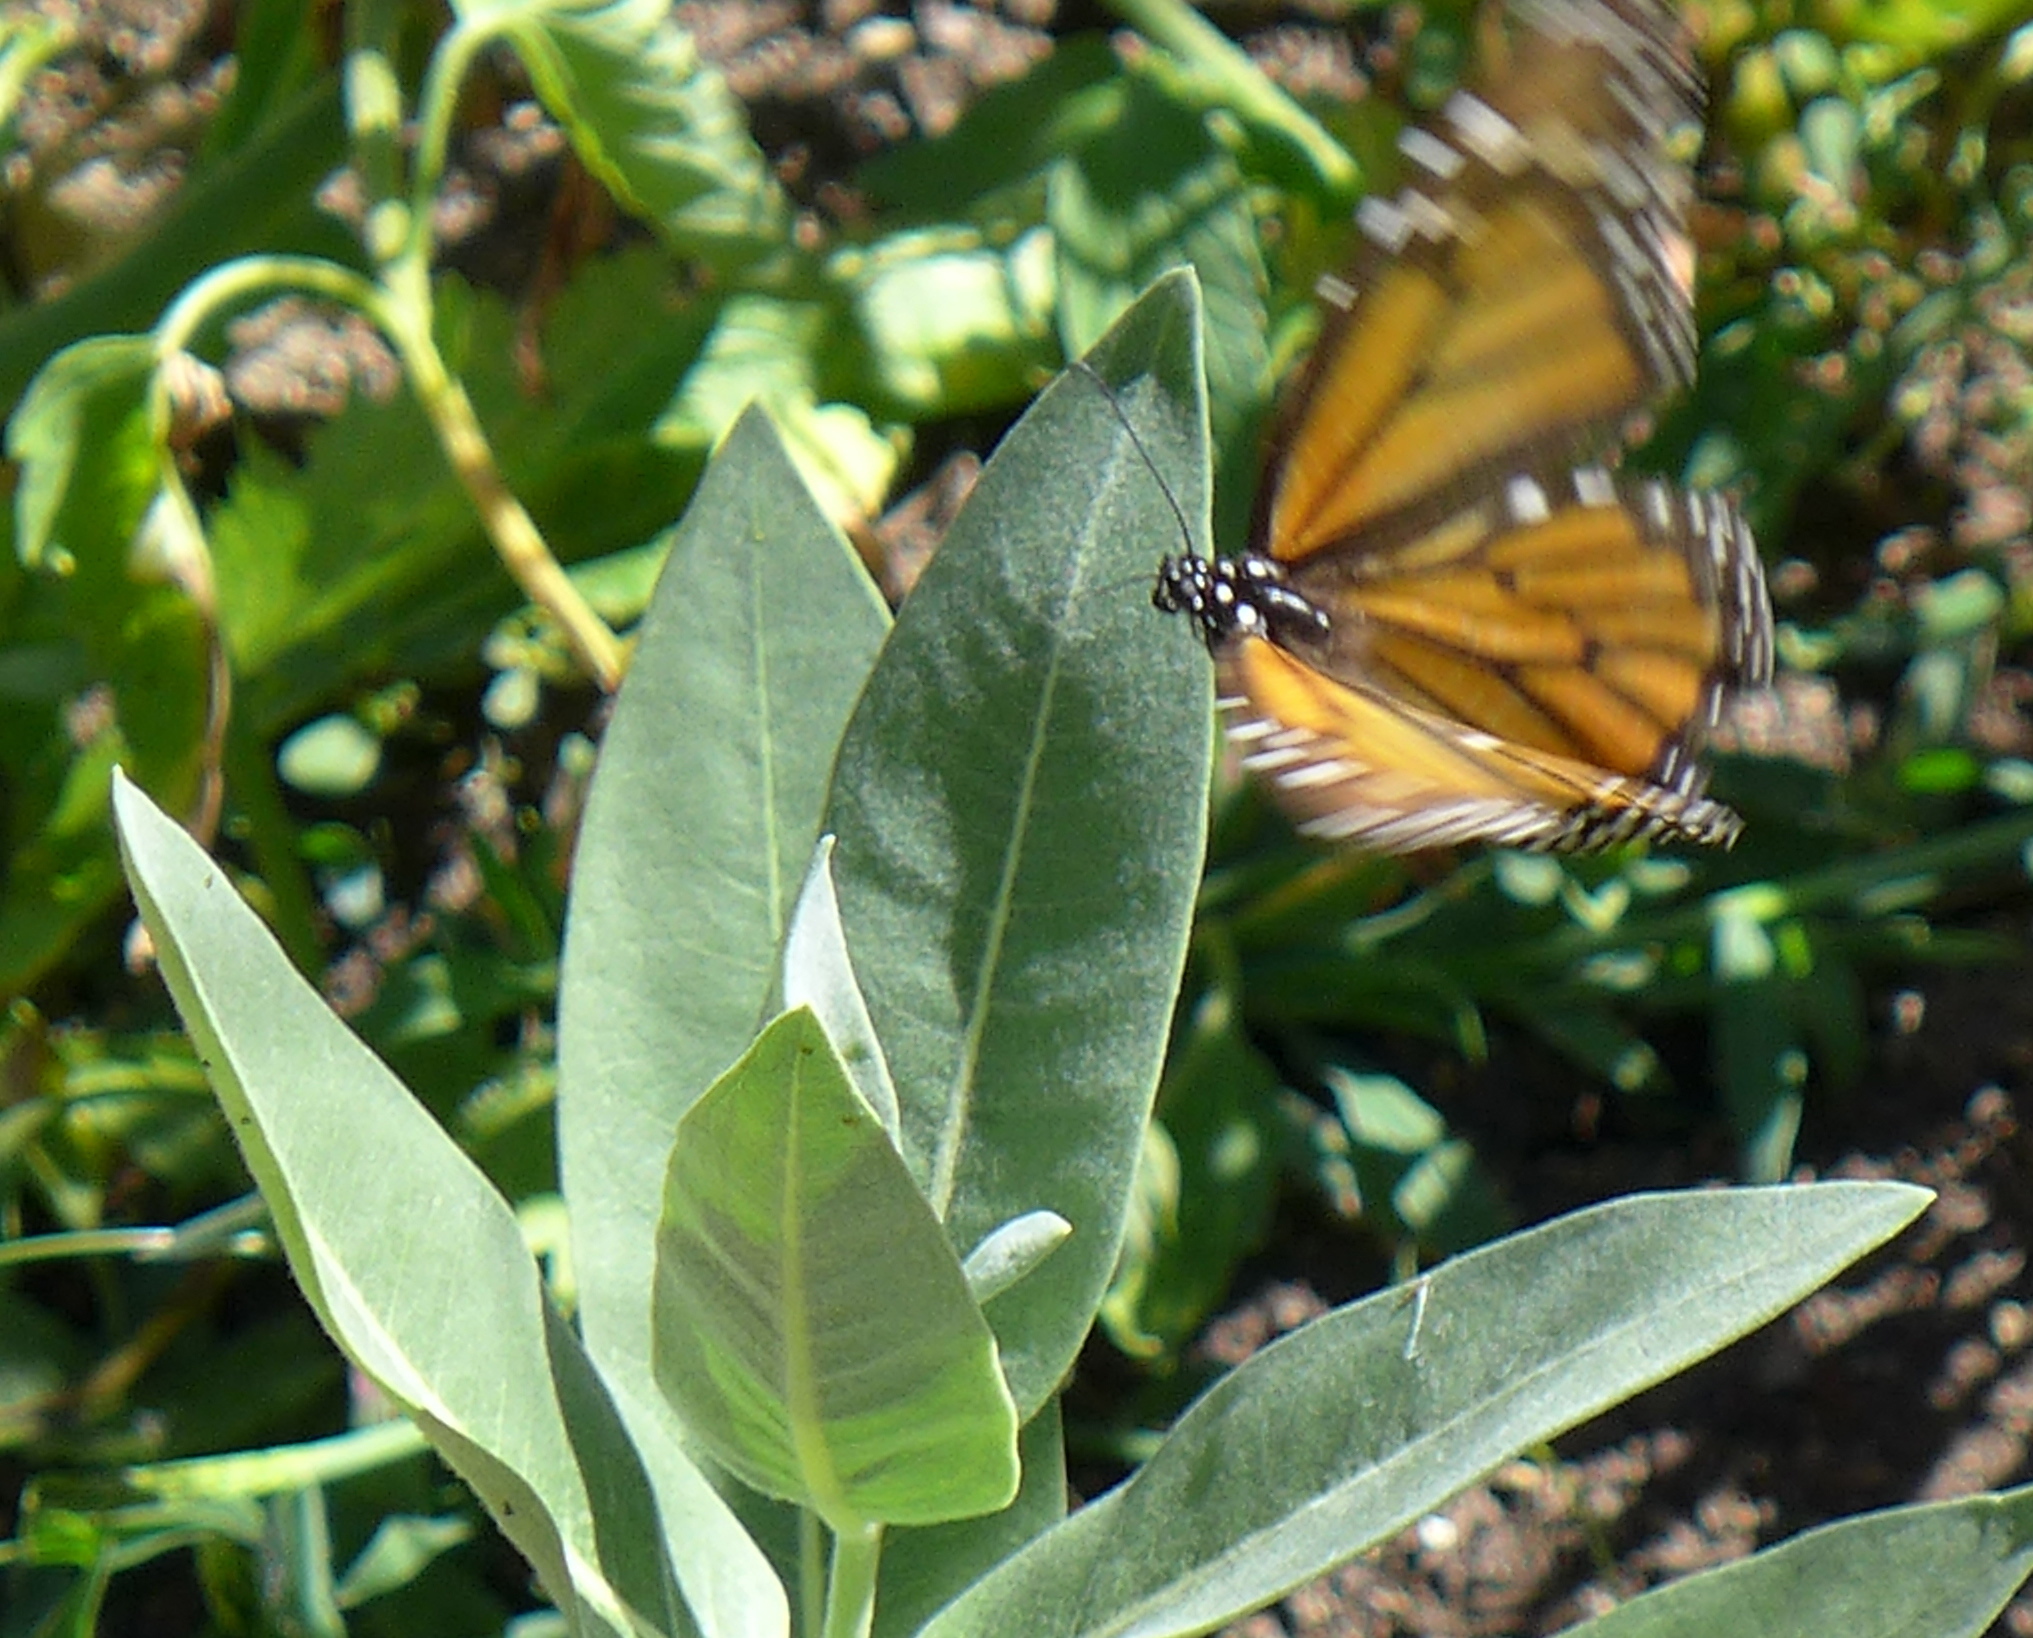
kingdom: Animalia
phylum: Arthropoda
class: Insecta
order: Lepidoptera
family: Nymphalidae
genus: Danaus
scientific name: Danaus plexippus
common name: Monarch
